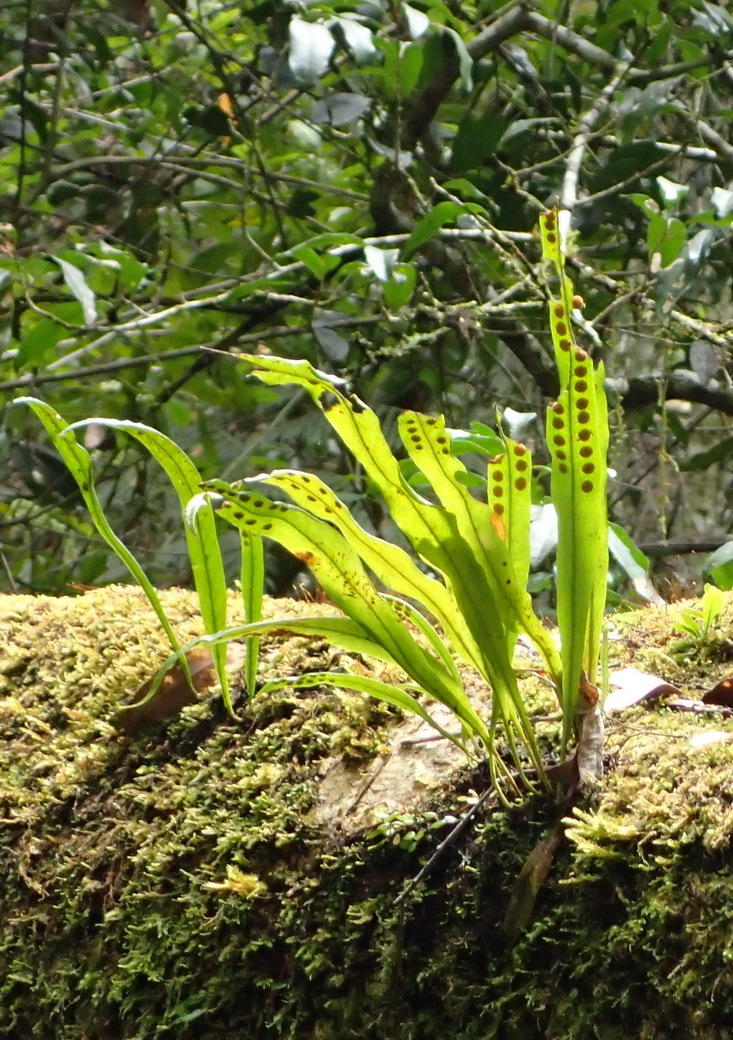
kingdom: Plantae
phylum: Tracheophyta
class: Polypodiopsida
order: Polypodiales
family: Polypodiaceae
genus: Lepisorus
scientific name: Lepisorus schraderi
